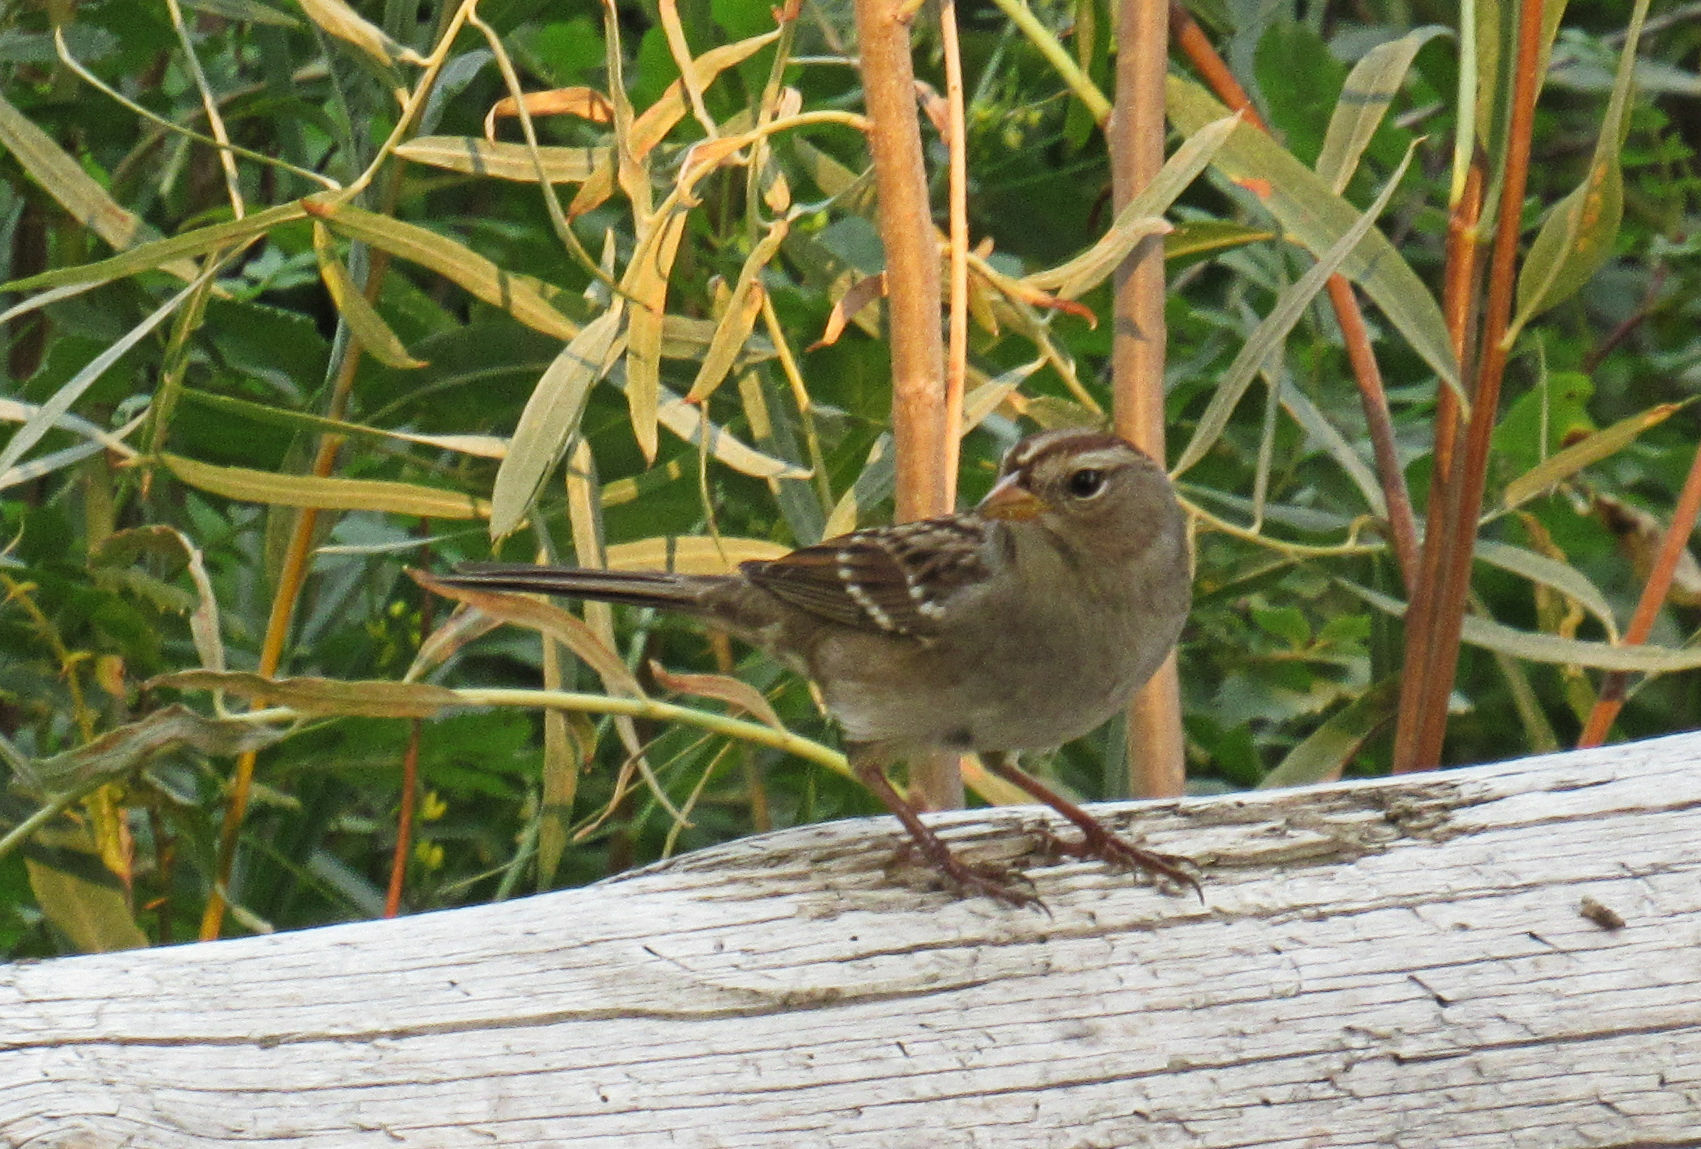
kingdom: Animalia
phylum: Chordata
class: Aves
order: Passeriformes
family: Passerellidae
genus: Zonotrichia
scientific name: Zonotrichia leucophrys
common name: White-crowned sparrow
